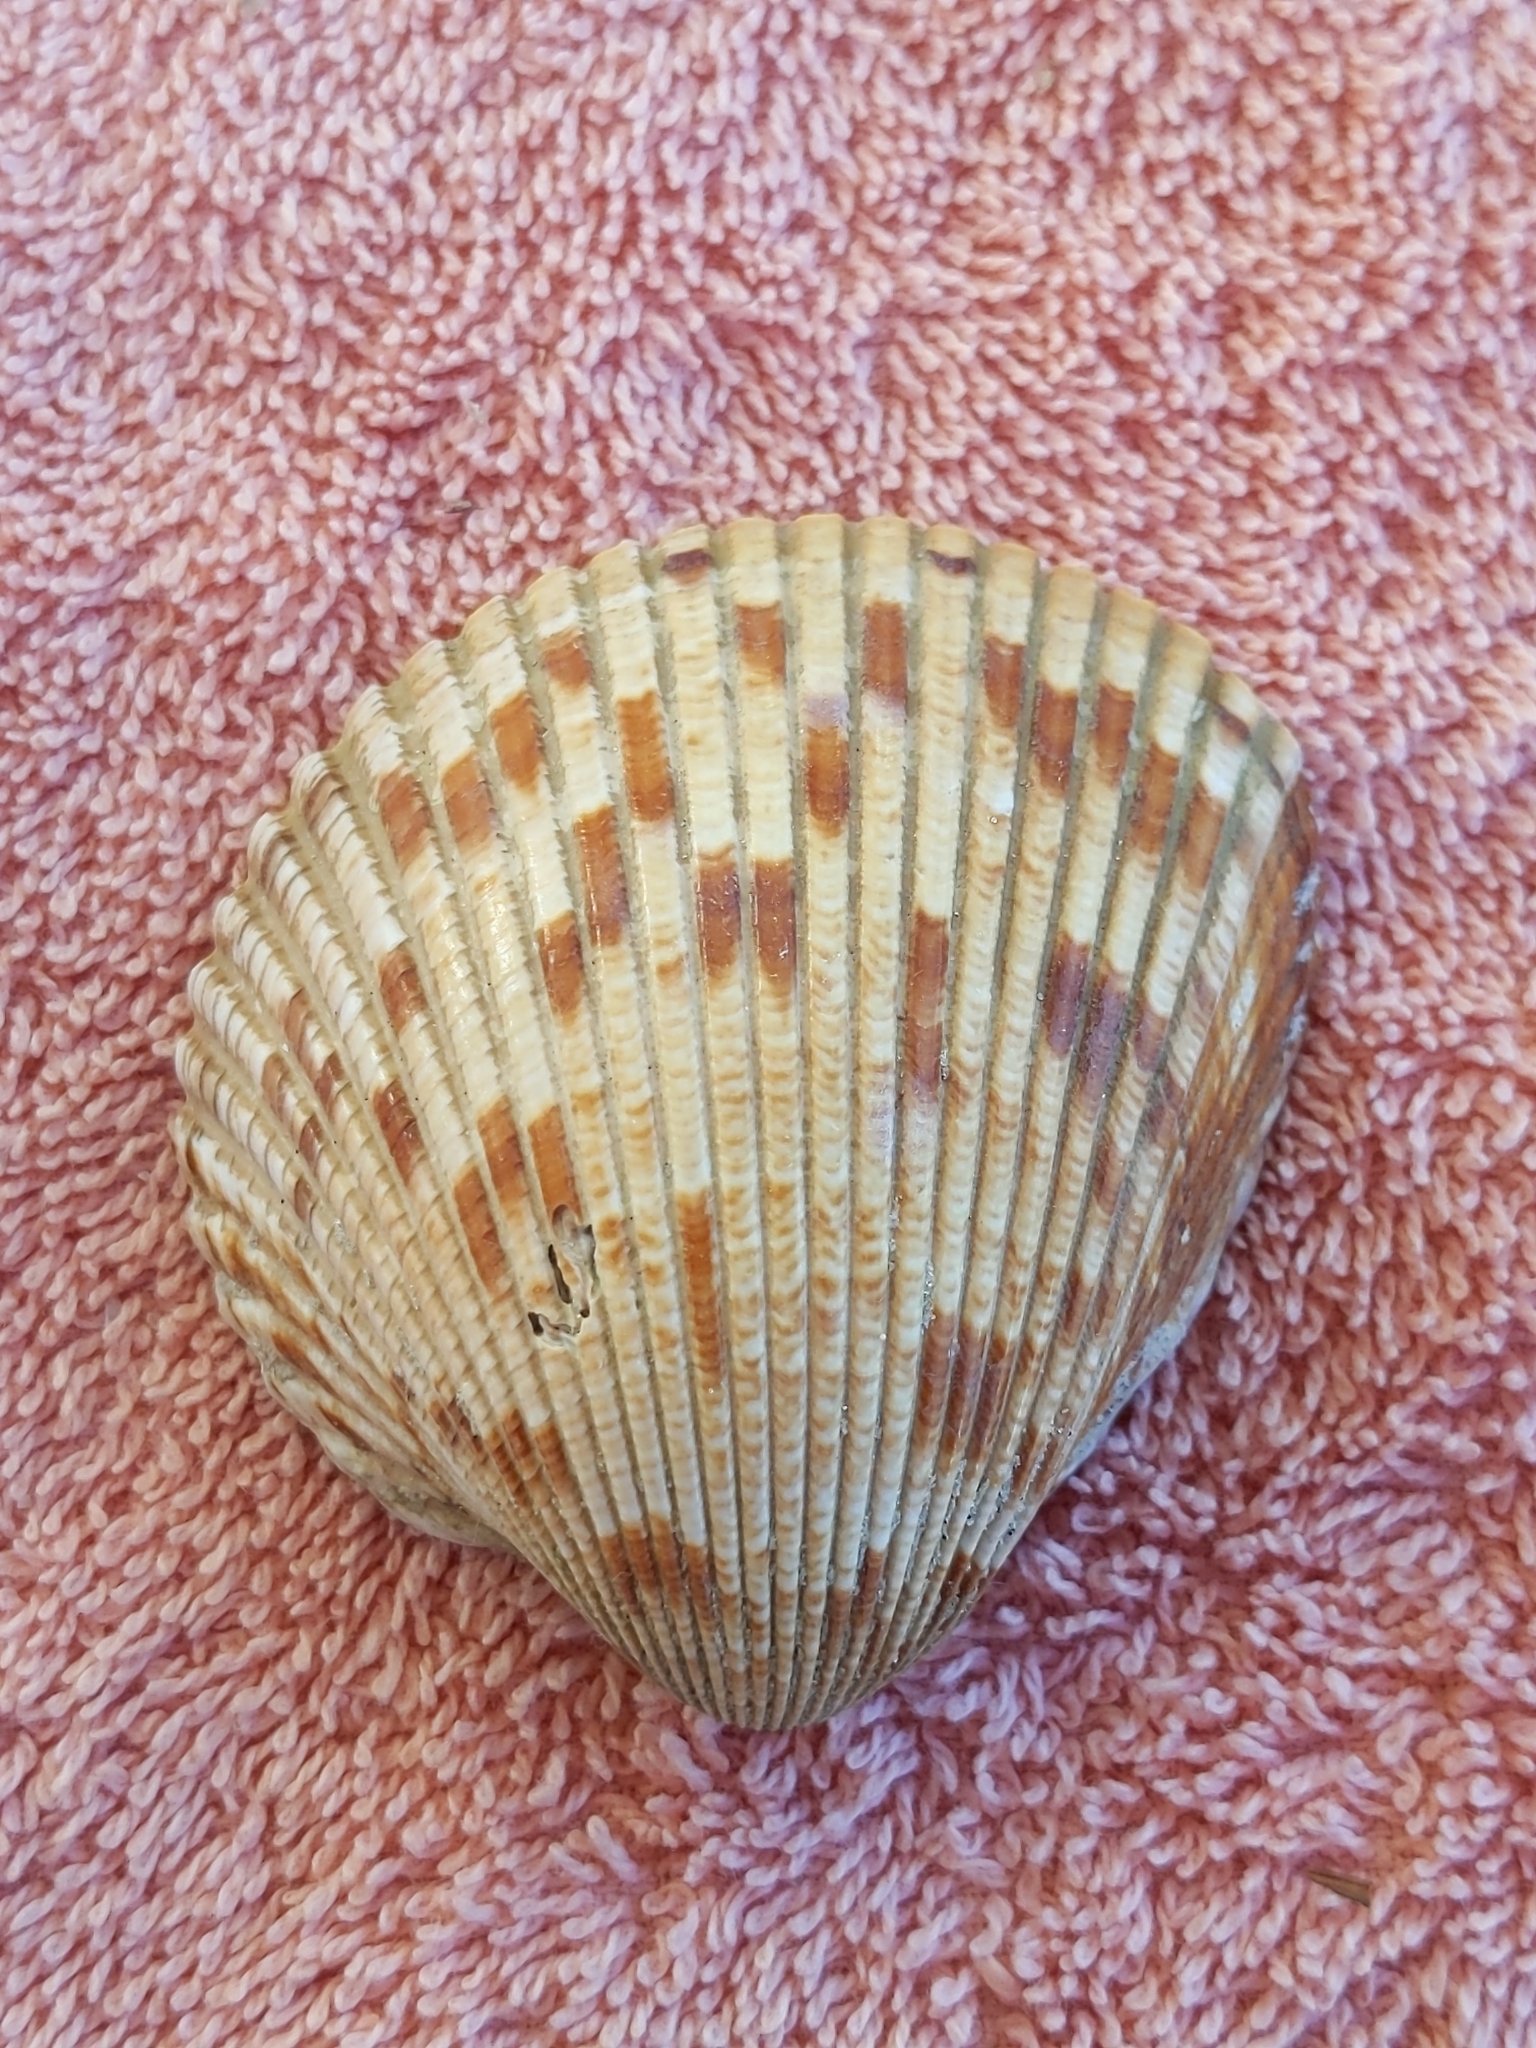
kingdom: Animalia
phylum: Mollusca
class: Bivalvia
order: Cardiida
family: Cardiidae
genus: Dinocardium
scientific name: Dinocardium robustum
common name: Atlantic giant cockle
